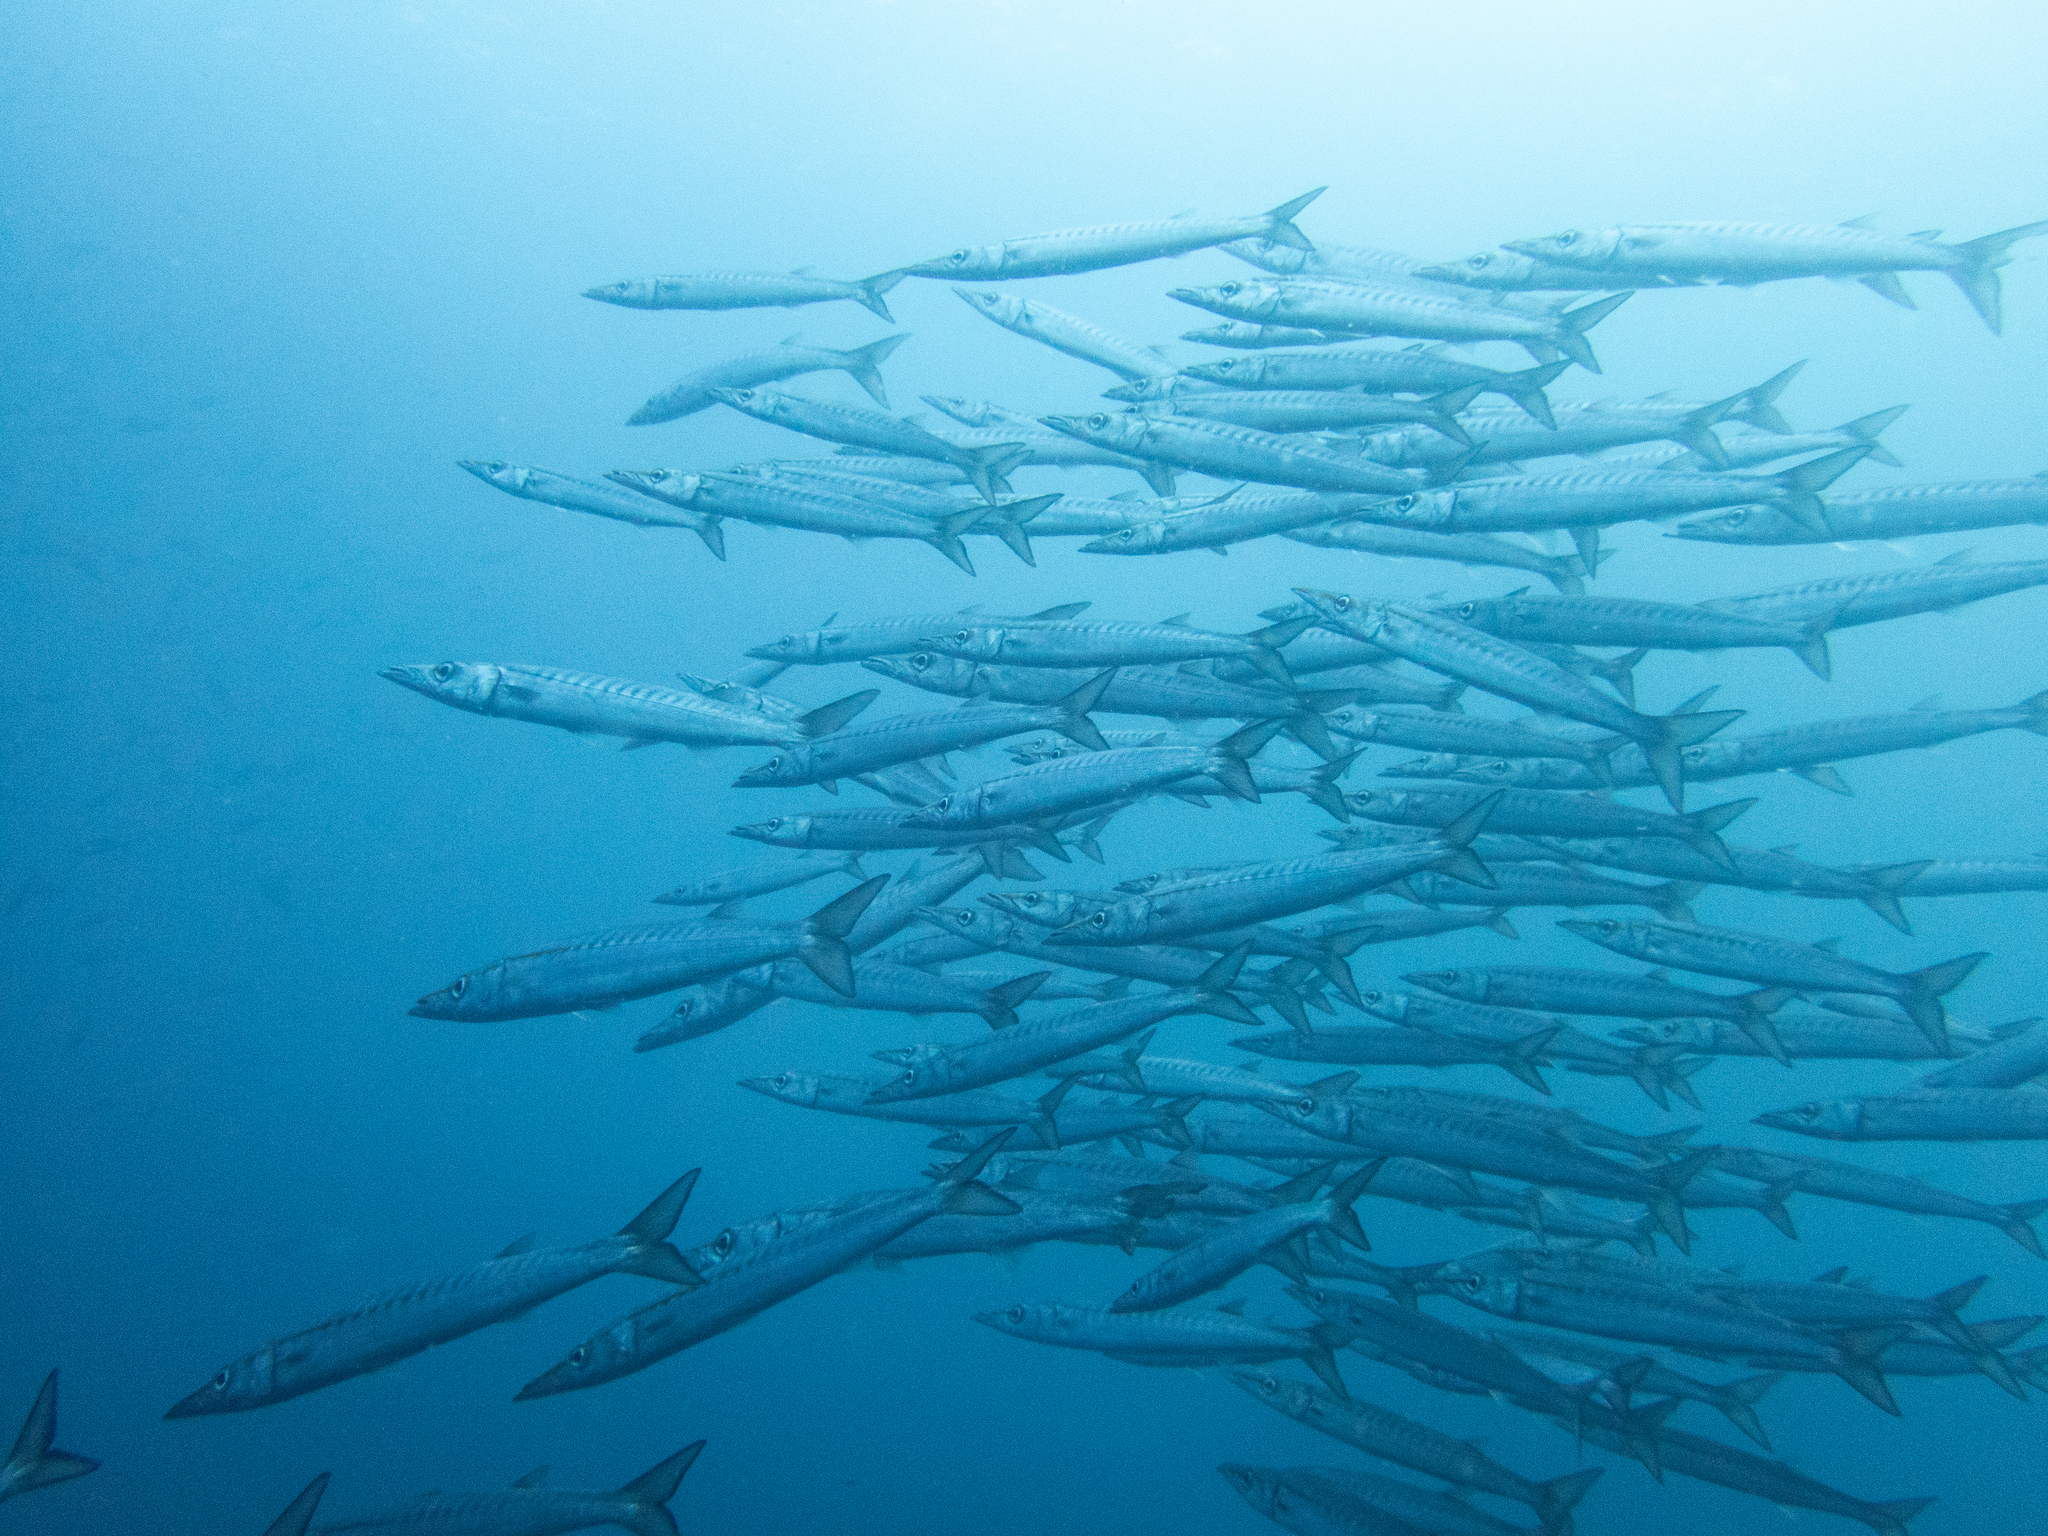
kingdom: Animalia
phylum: Chordata
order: Perciformes
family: Sphyraenidae
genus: Sphyraena
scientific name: Sphyraena idiastes
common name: Pelican barracuda
